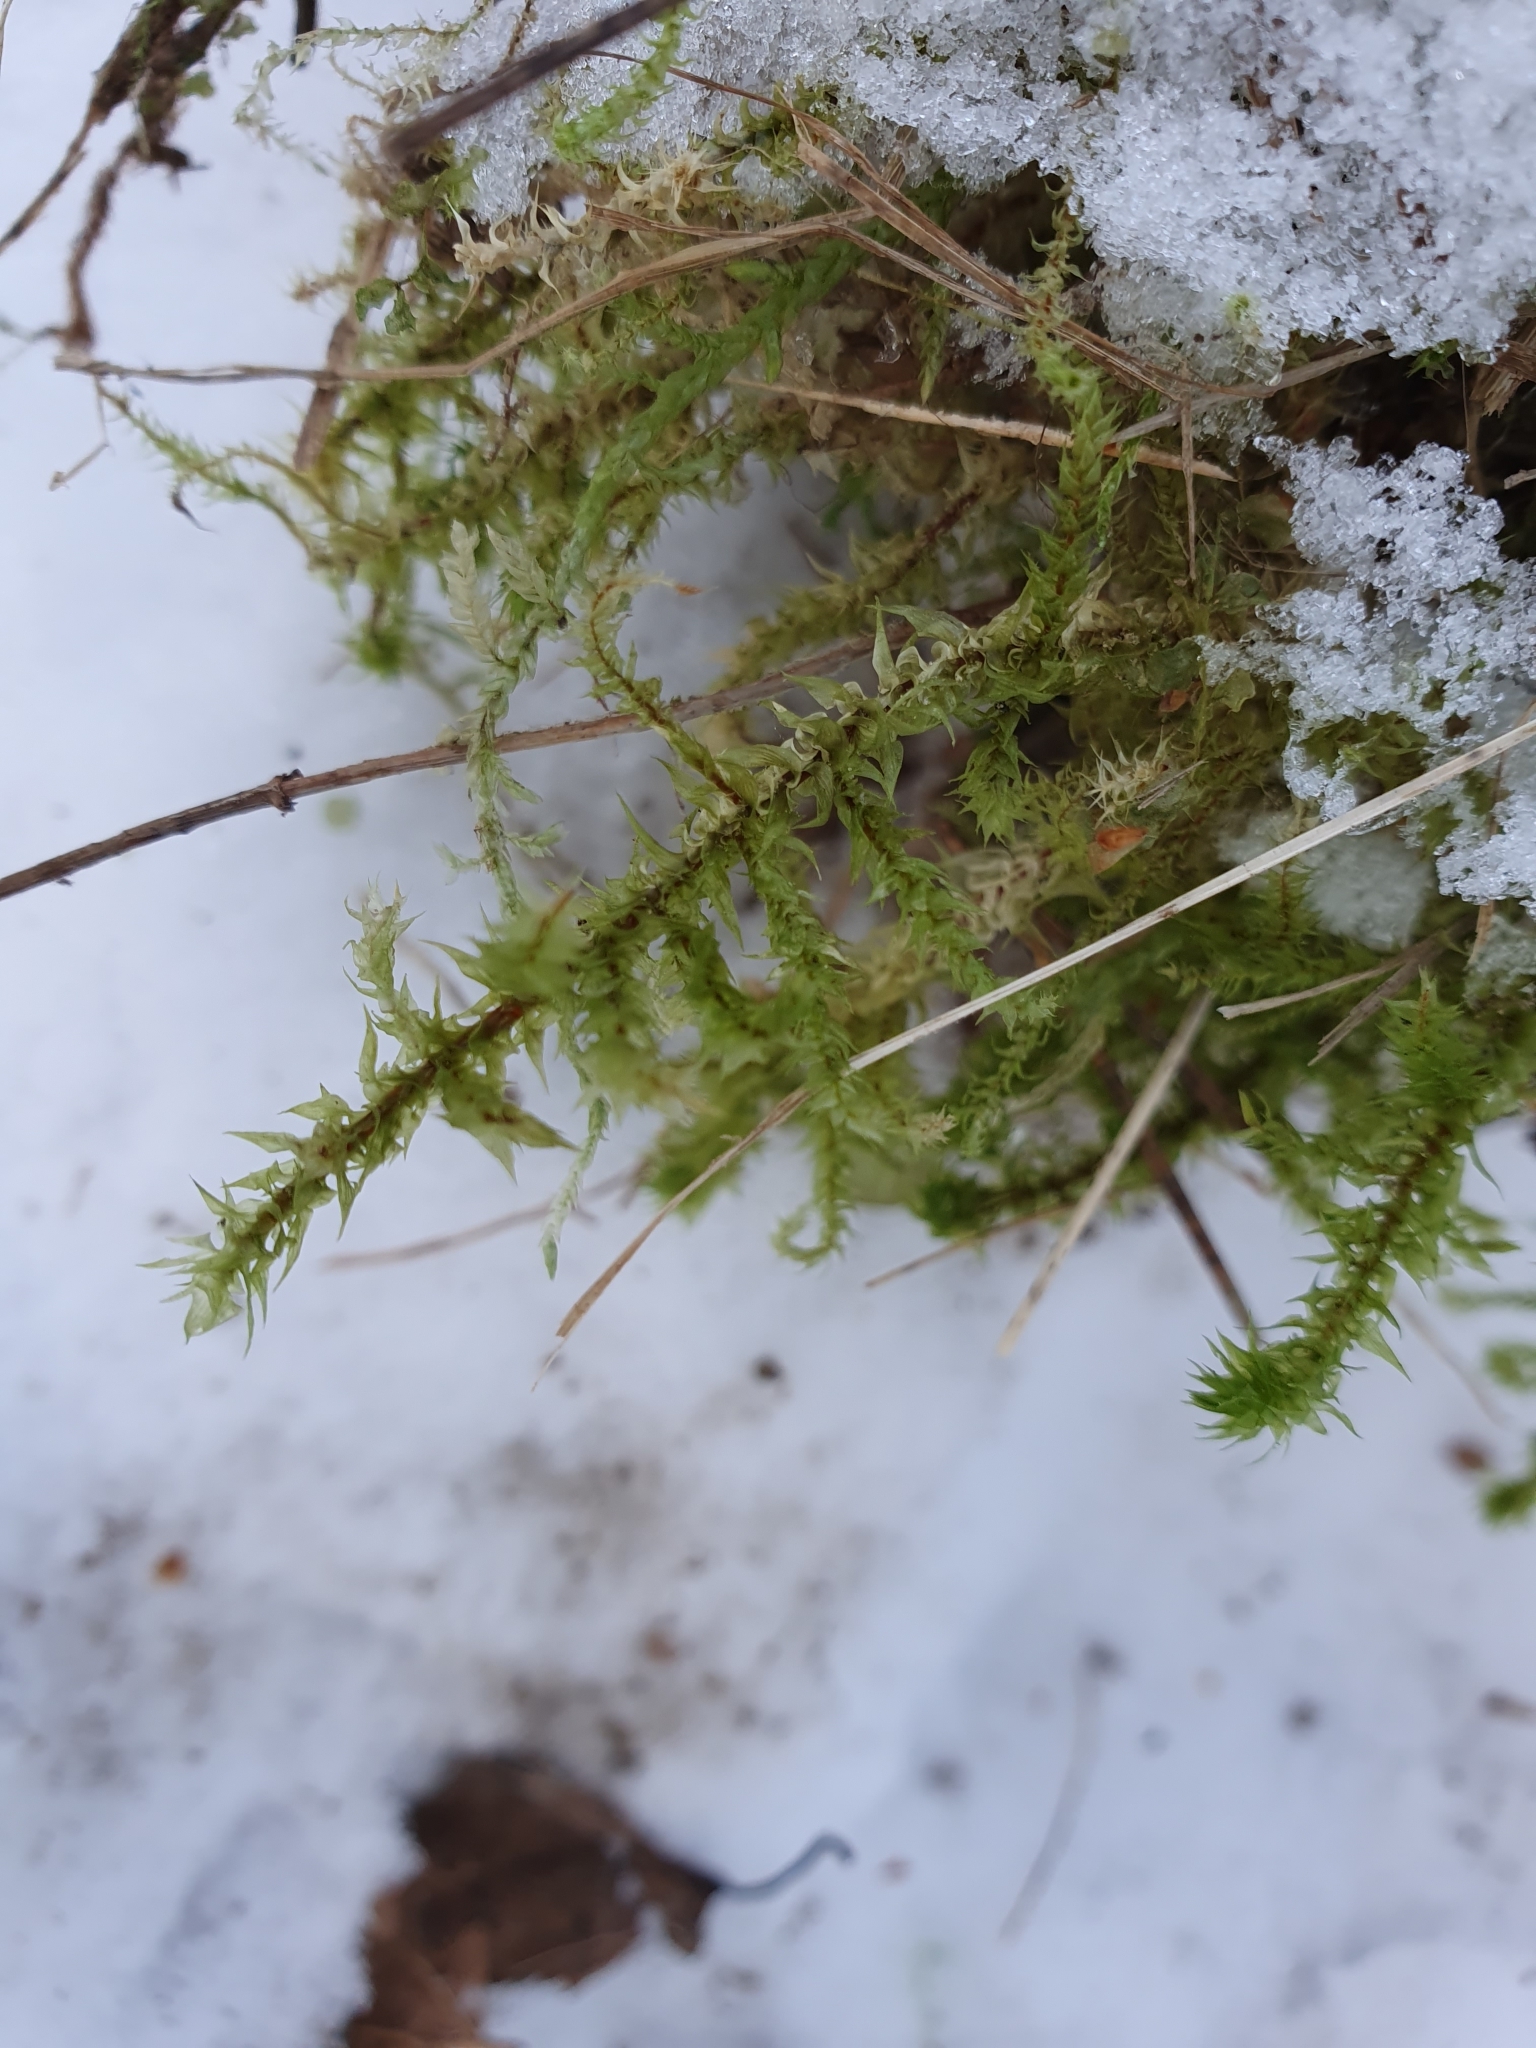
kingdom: Plantae
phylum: Bryophyta
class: Bryopsida
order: Hypnales
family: Hylocomiaceae
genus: Hylocomiadelphus
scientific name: Hylocomiadelphus triquetrus
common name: Rough goose neck moss
